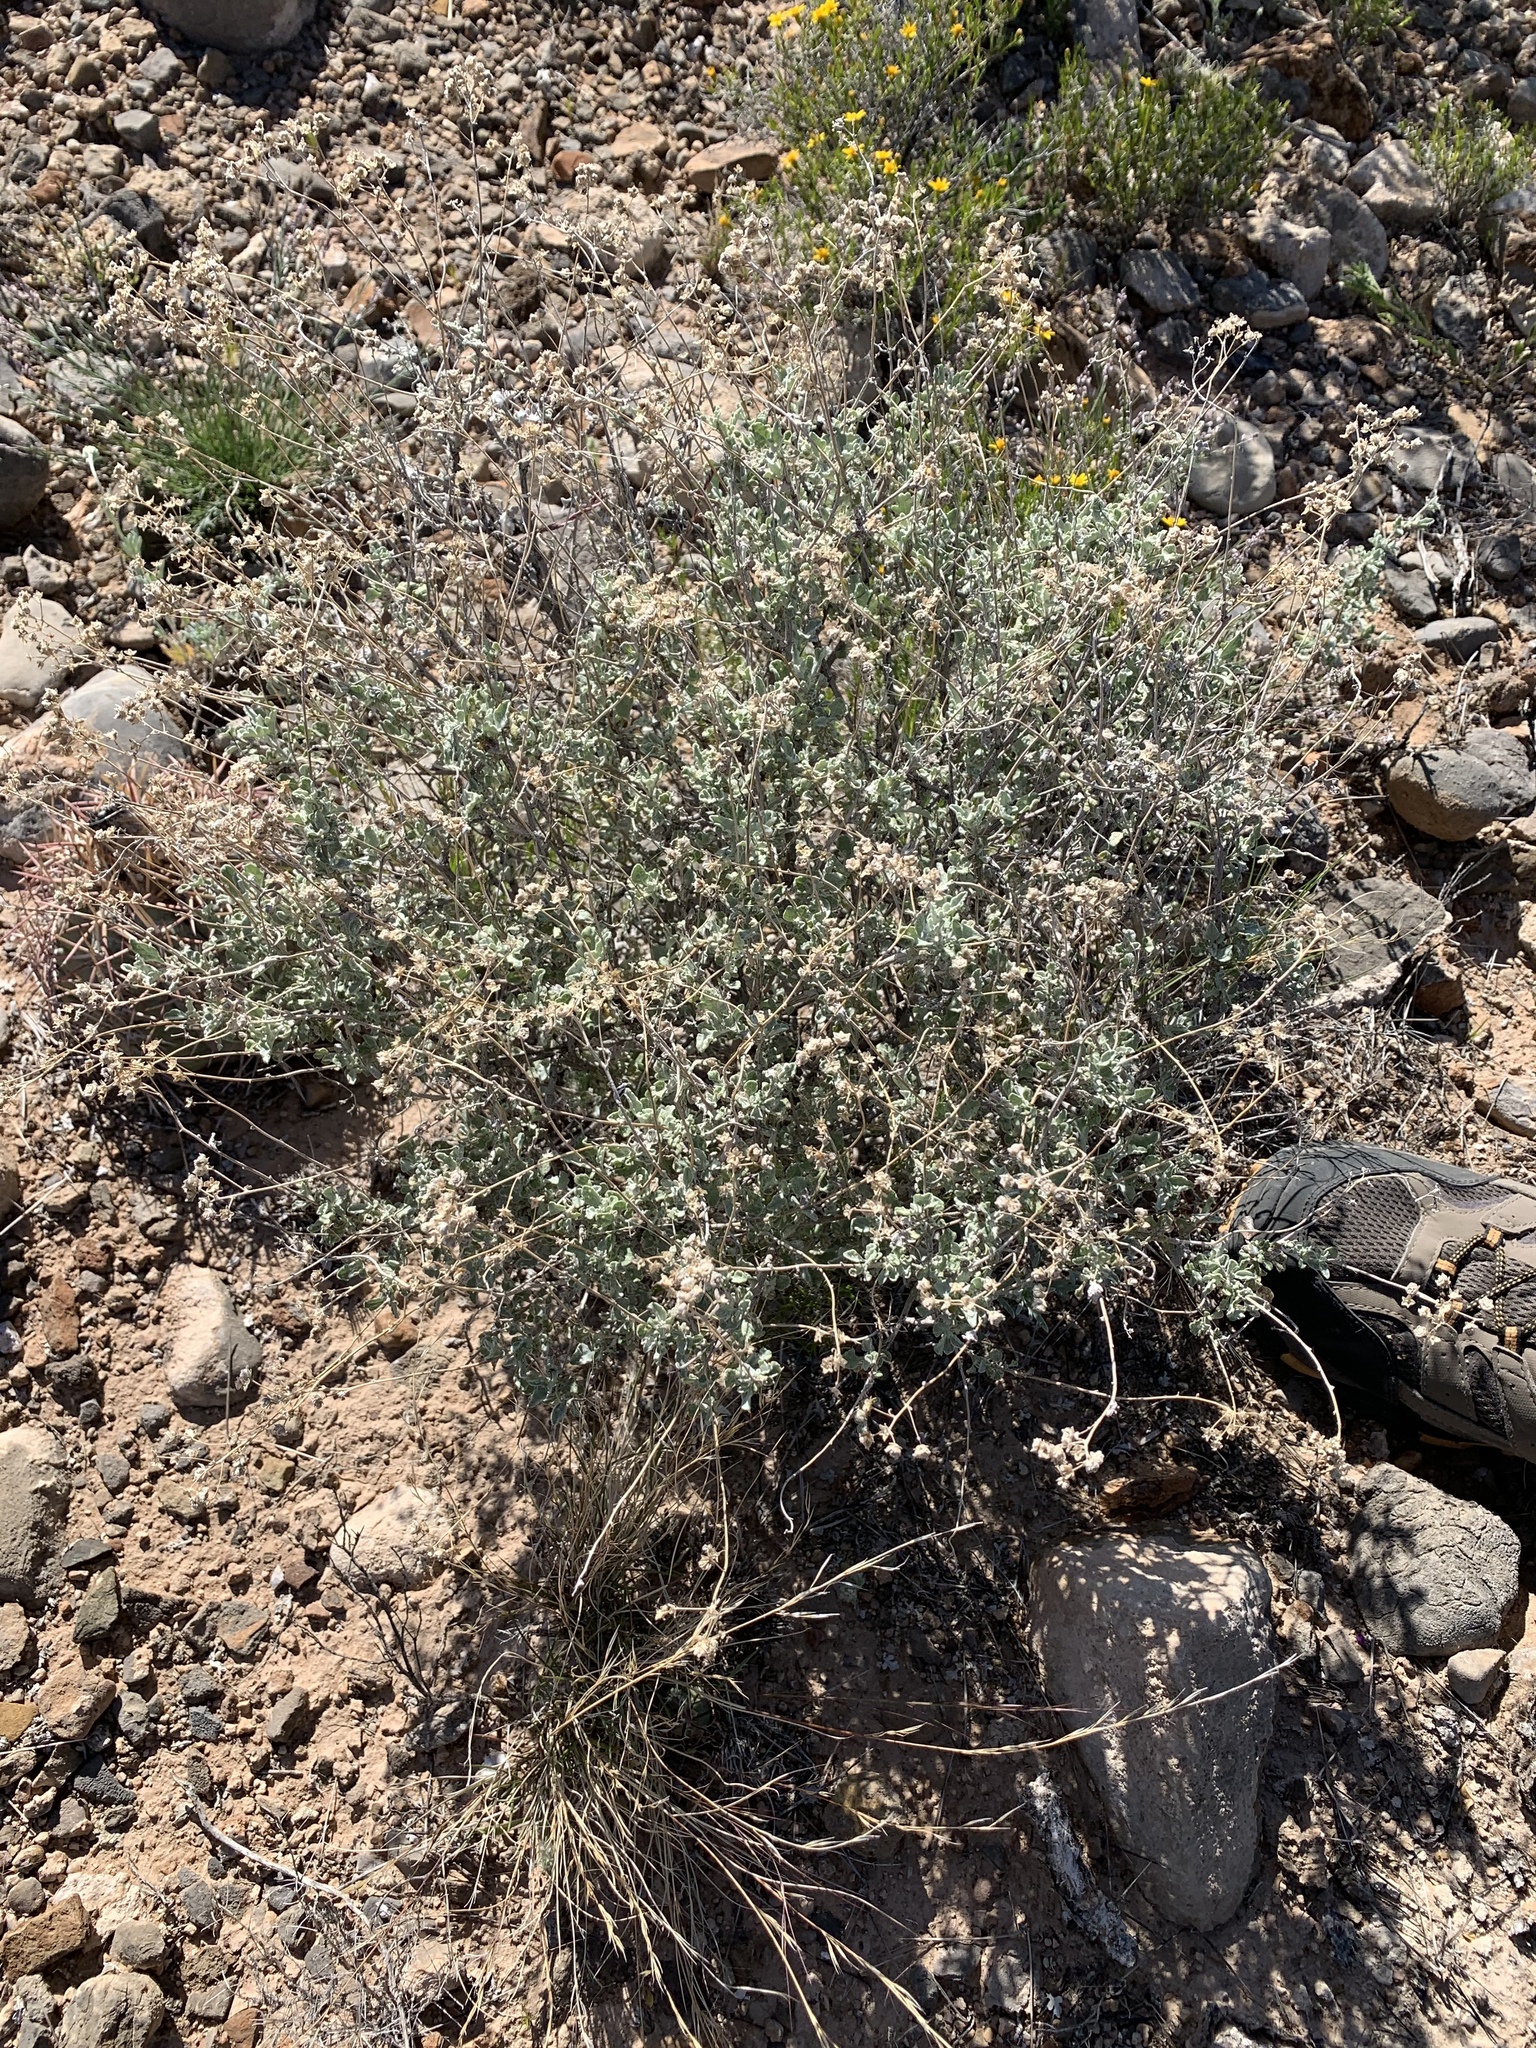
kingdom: Plantae
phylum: Tracheophyta
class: Magnoliopsida
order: Asterales
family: Asteraceae
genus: Parthenium
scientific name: Parthenium incanum
